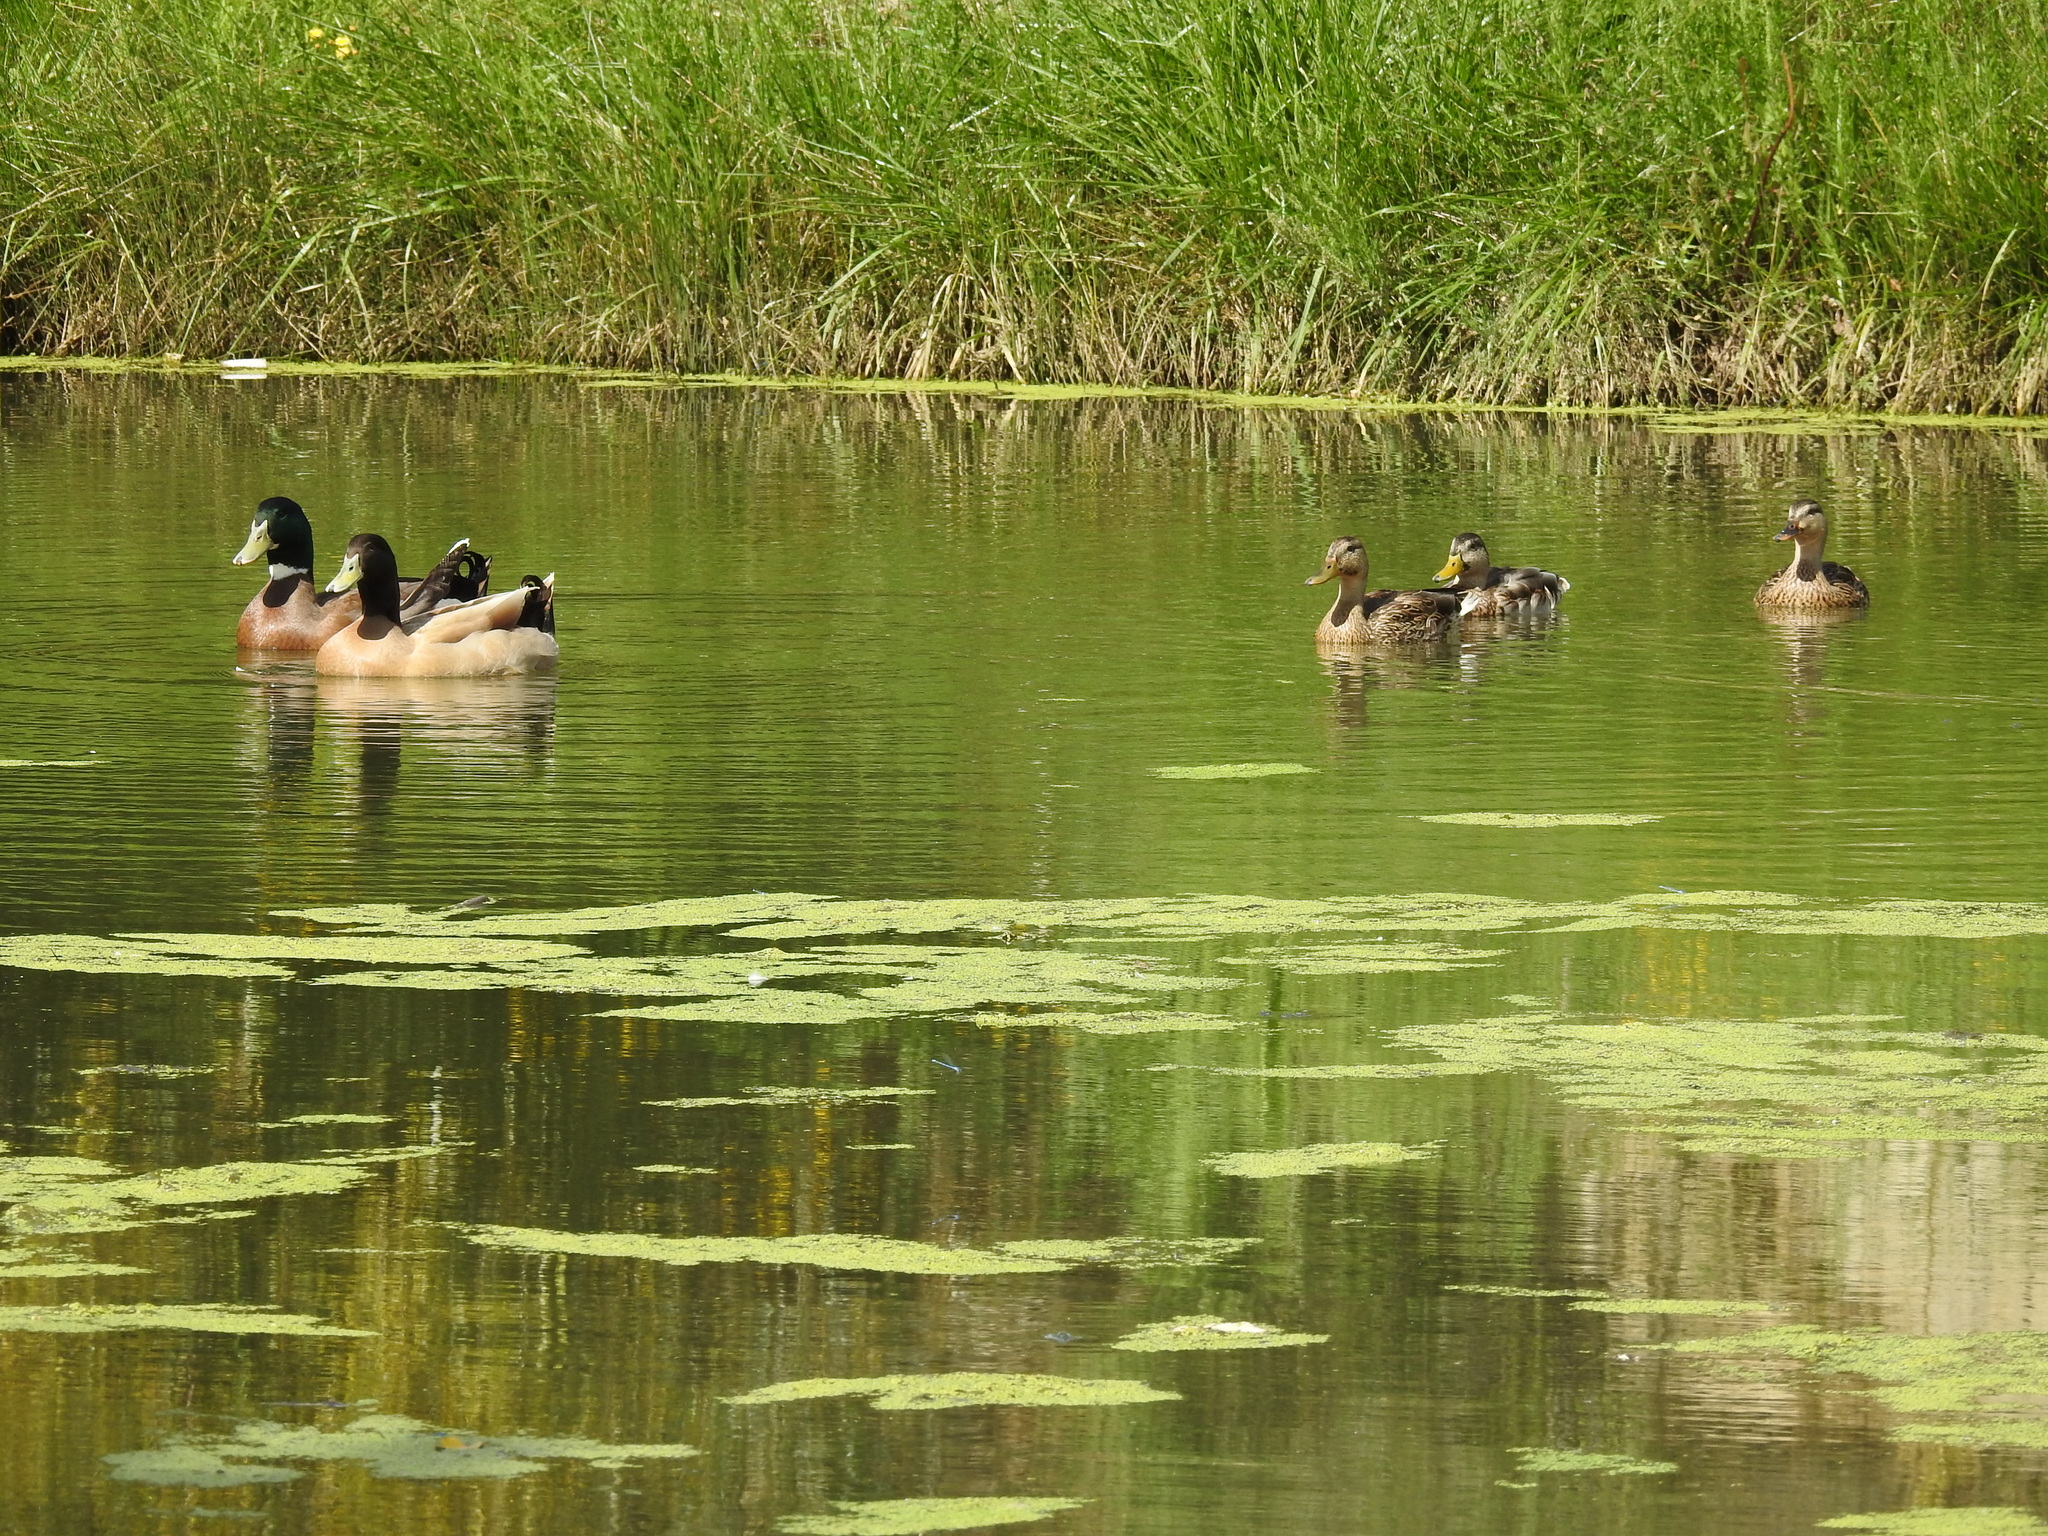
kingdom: Animalia
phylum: Chordata
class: Aves
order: Anseriformes
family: Anatidae
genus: Anas
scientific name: Anas platyrhynchos
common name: Mallard
